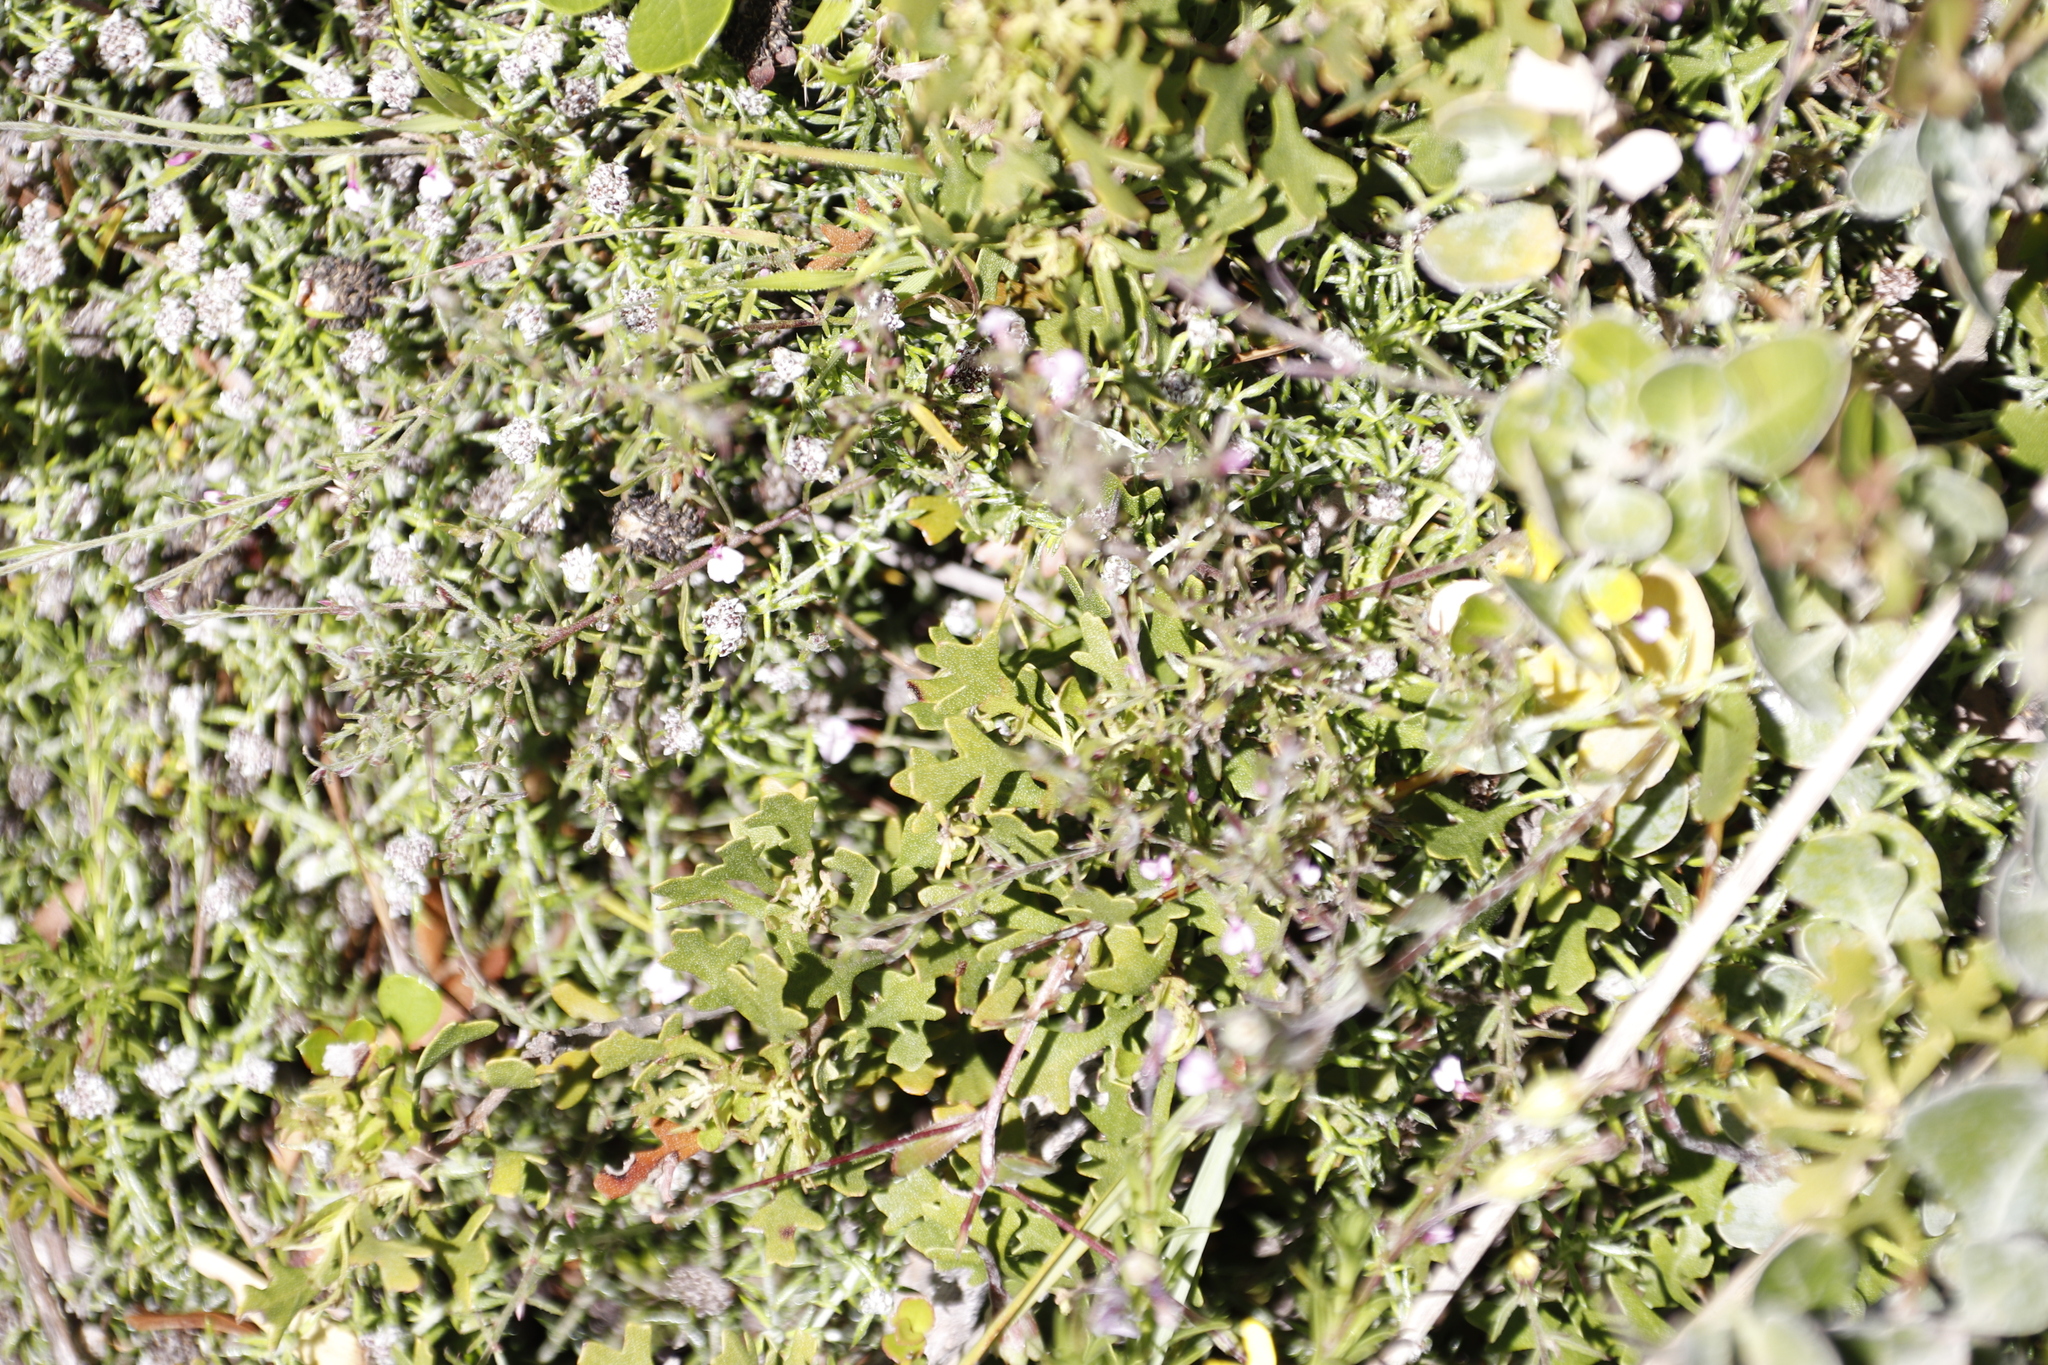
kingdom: Plantae
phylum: Tracheophyta
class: Magnoliopsida
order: Fagales
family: Myricaceae
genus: Morella
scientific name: Morella quercifolia
